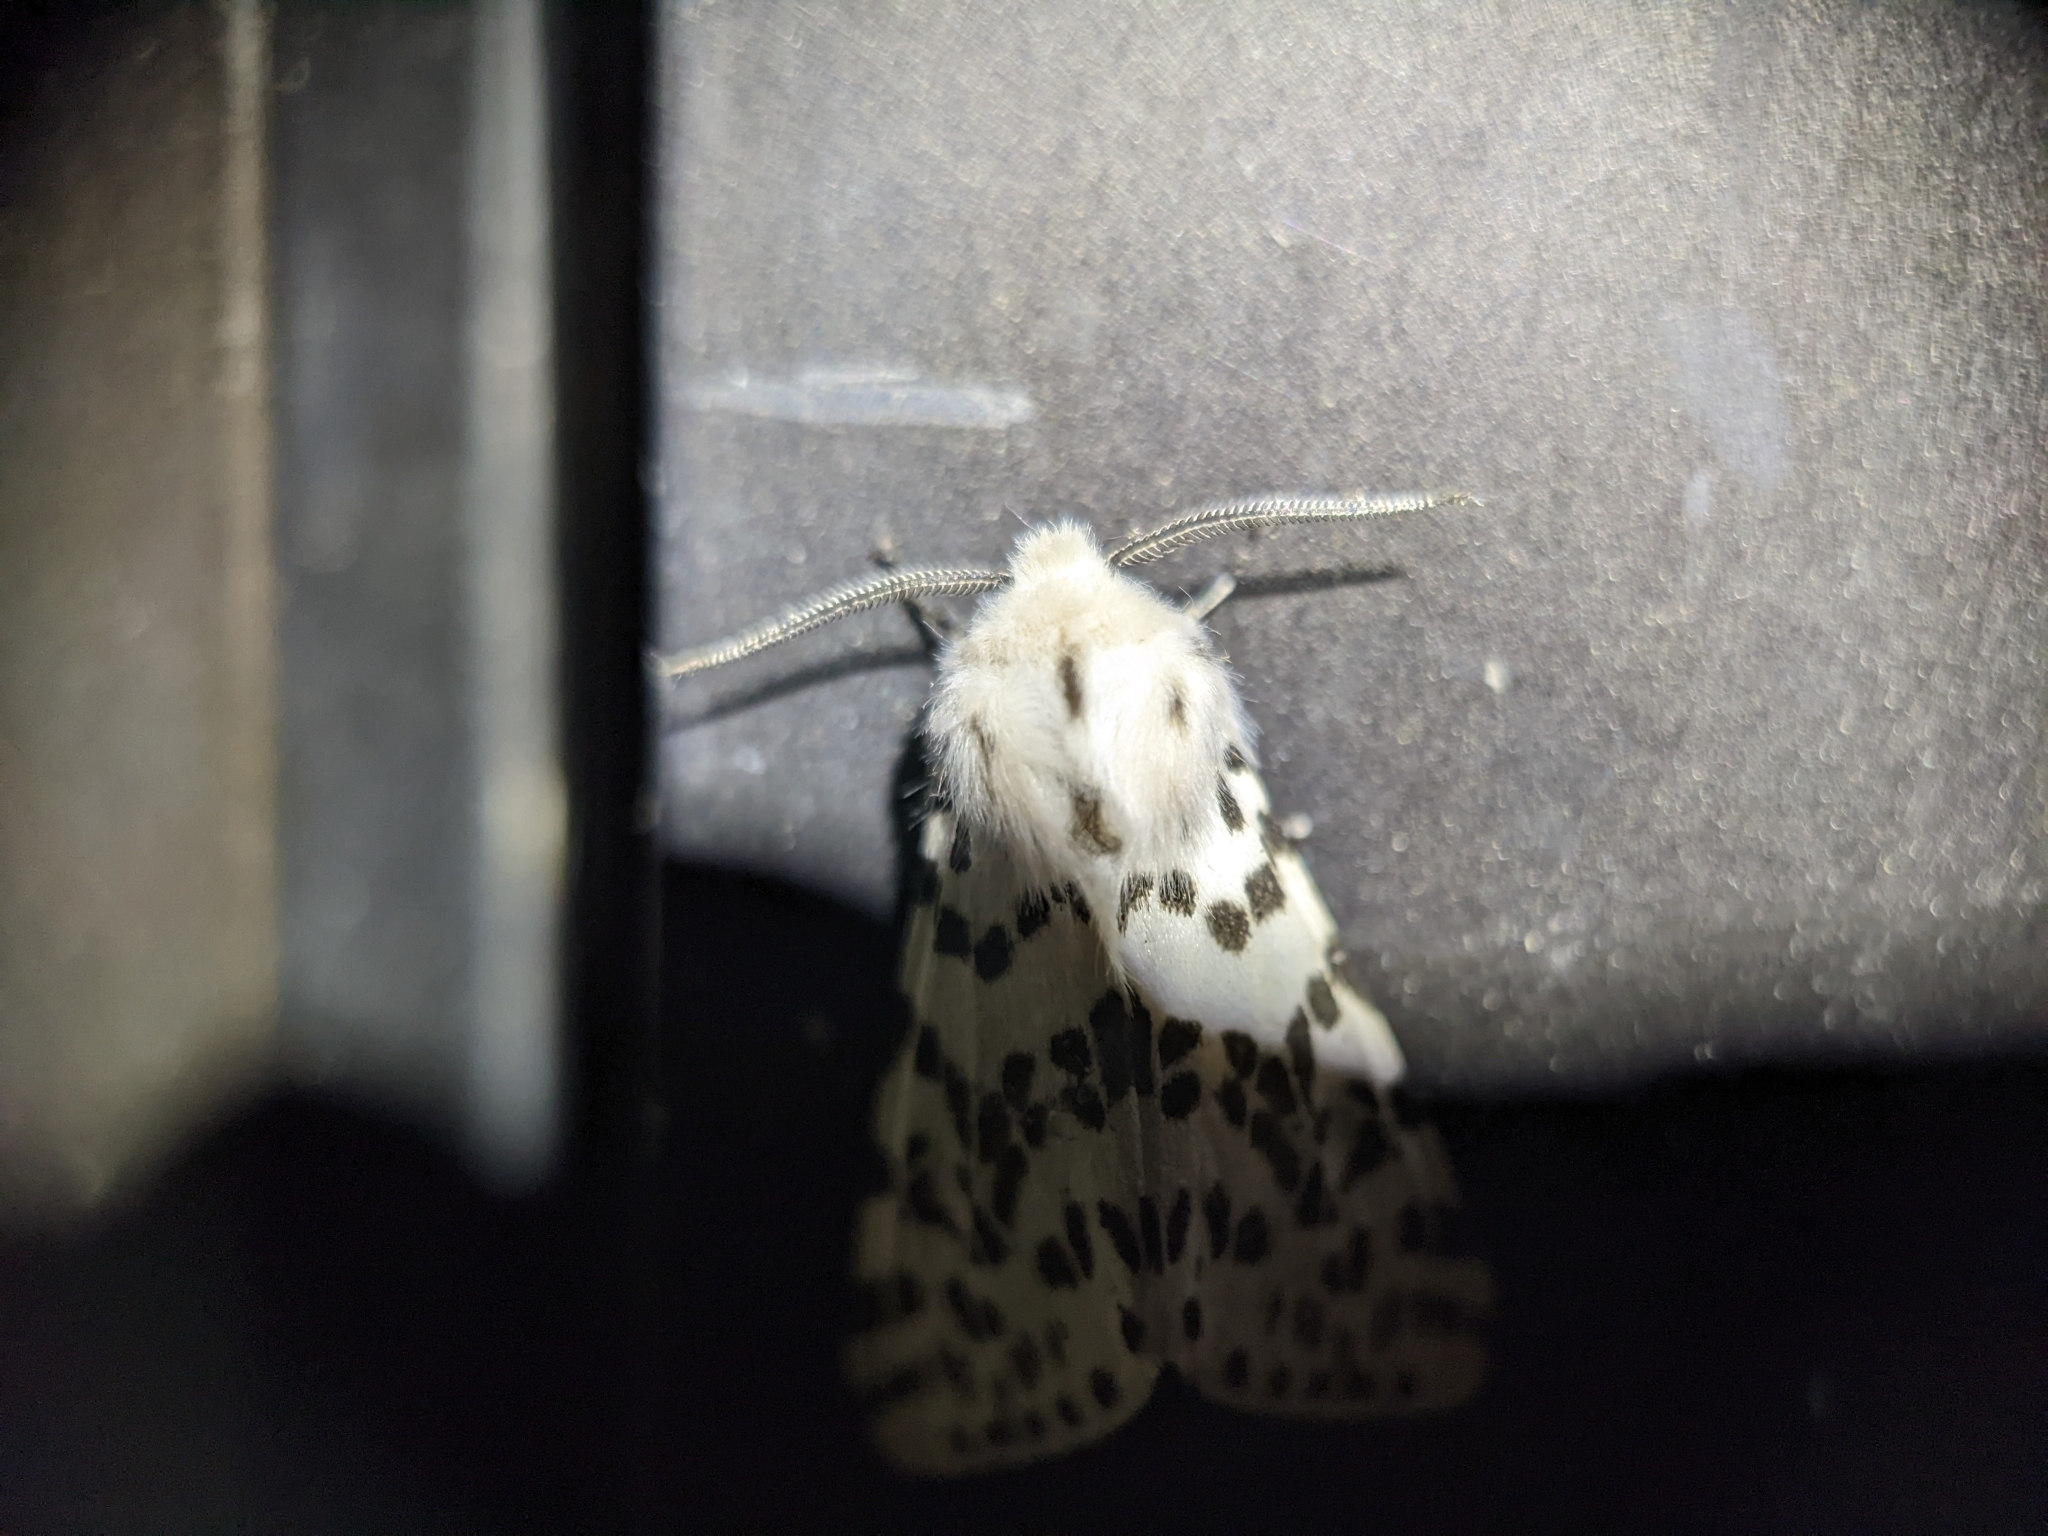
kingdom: Animalia
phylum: Arthropoda
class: Insecta
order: Lepidoptera
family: Erebidae
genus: Hyphantria
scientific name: Hyphantria cunea
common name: American white moth
